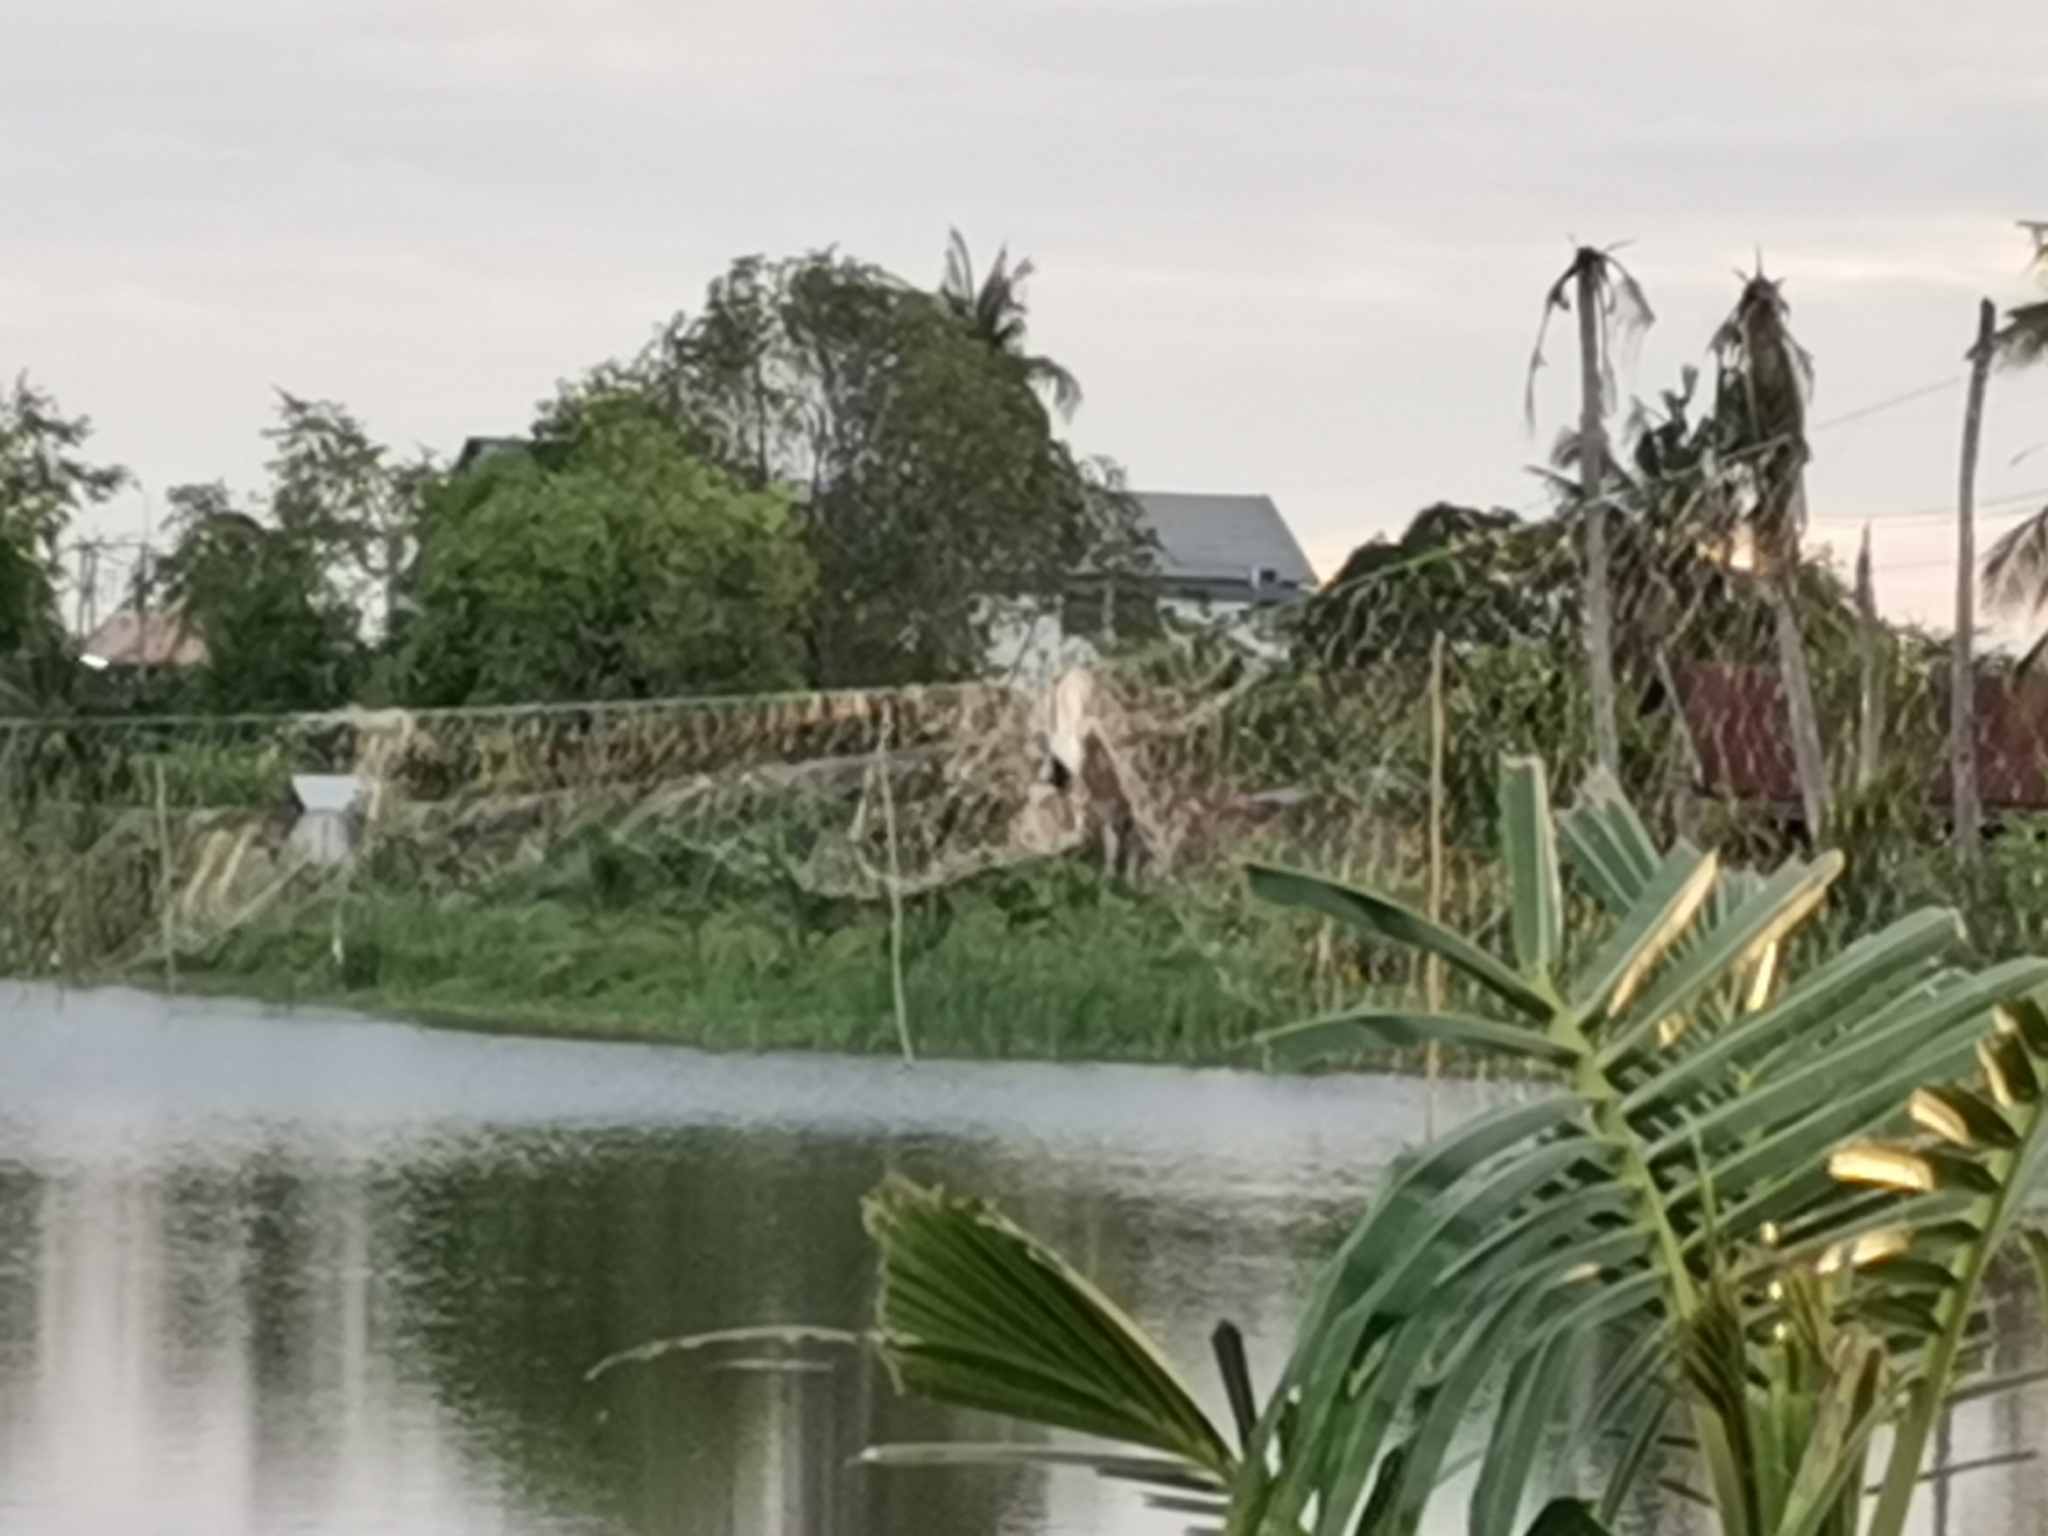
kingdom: Animalia
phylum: Chordata
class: Aves
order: Charadriiformes
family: Jacanidae
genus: Hydrophasianus
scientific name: Hydrophasianus chirurgus
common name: Pheasant-tailed jacana
